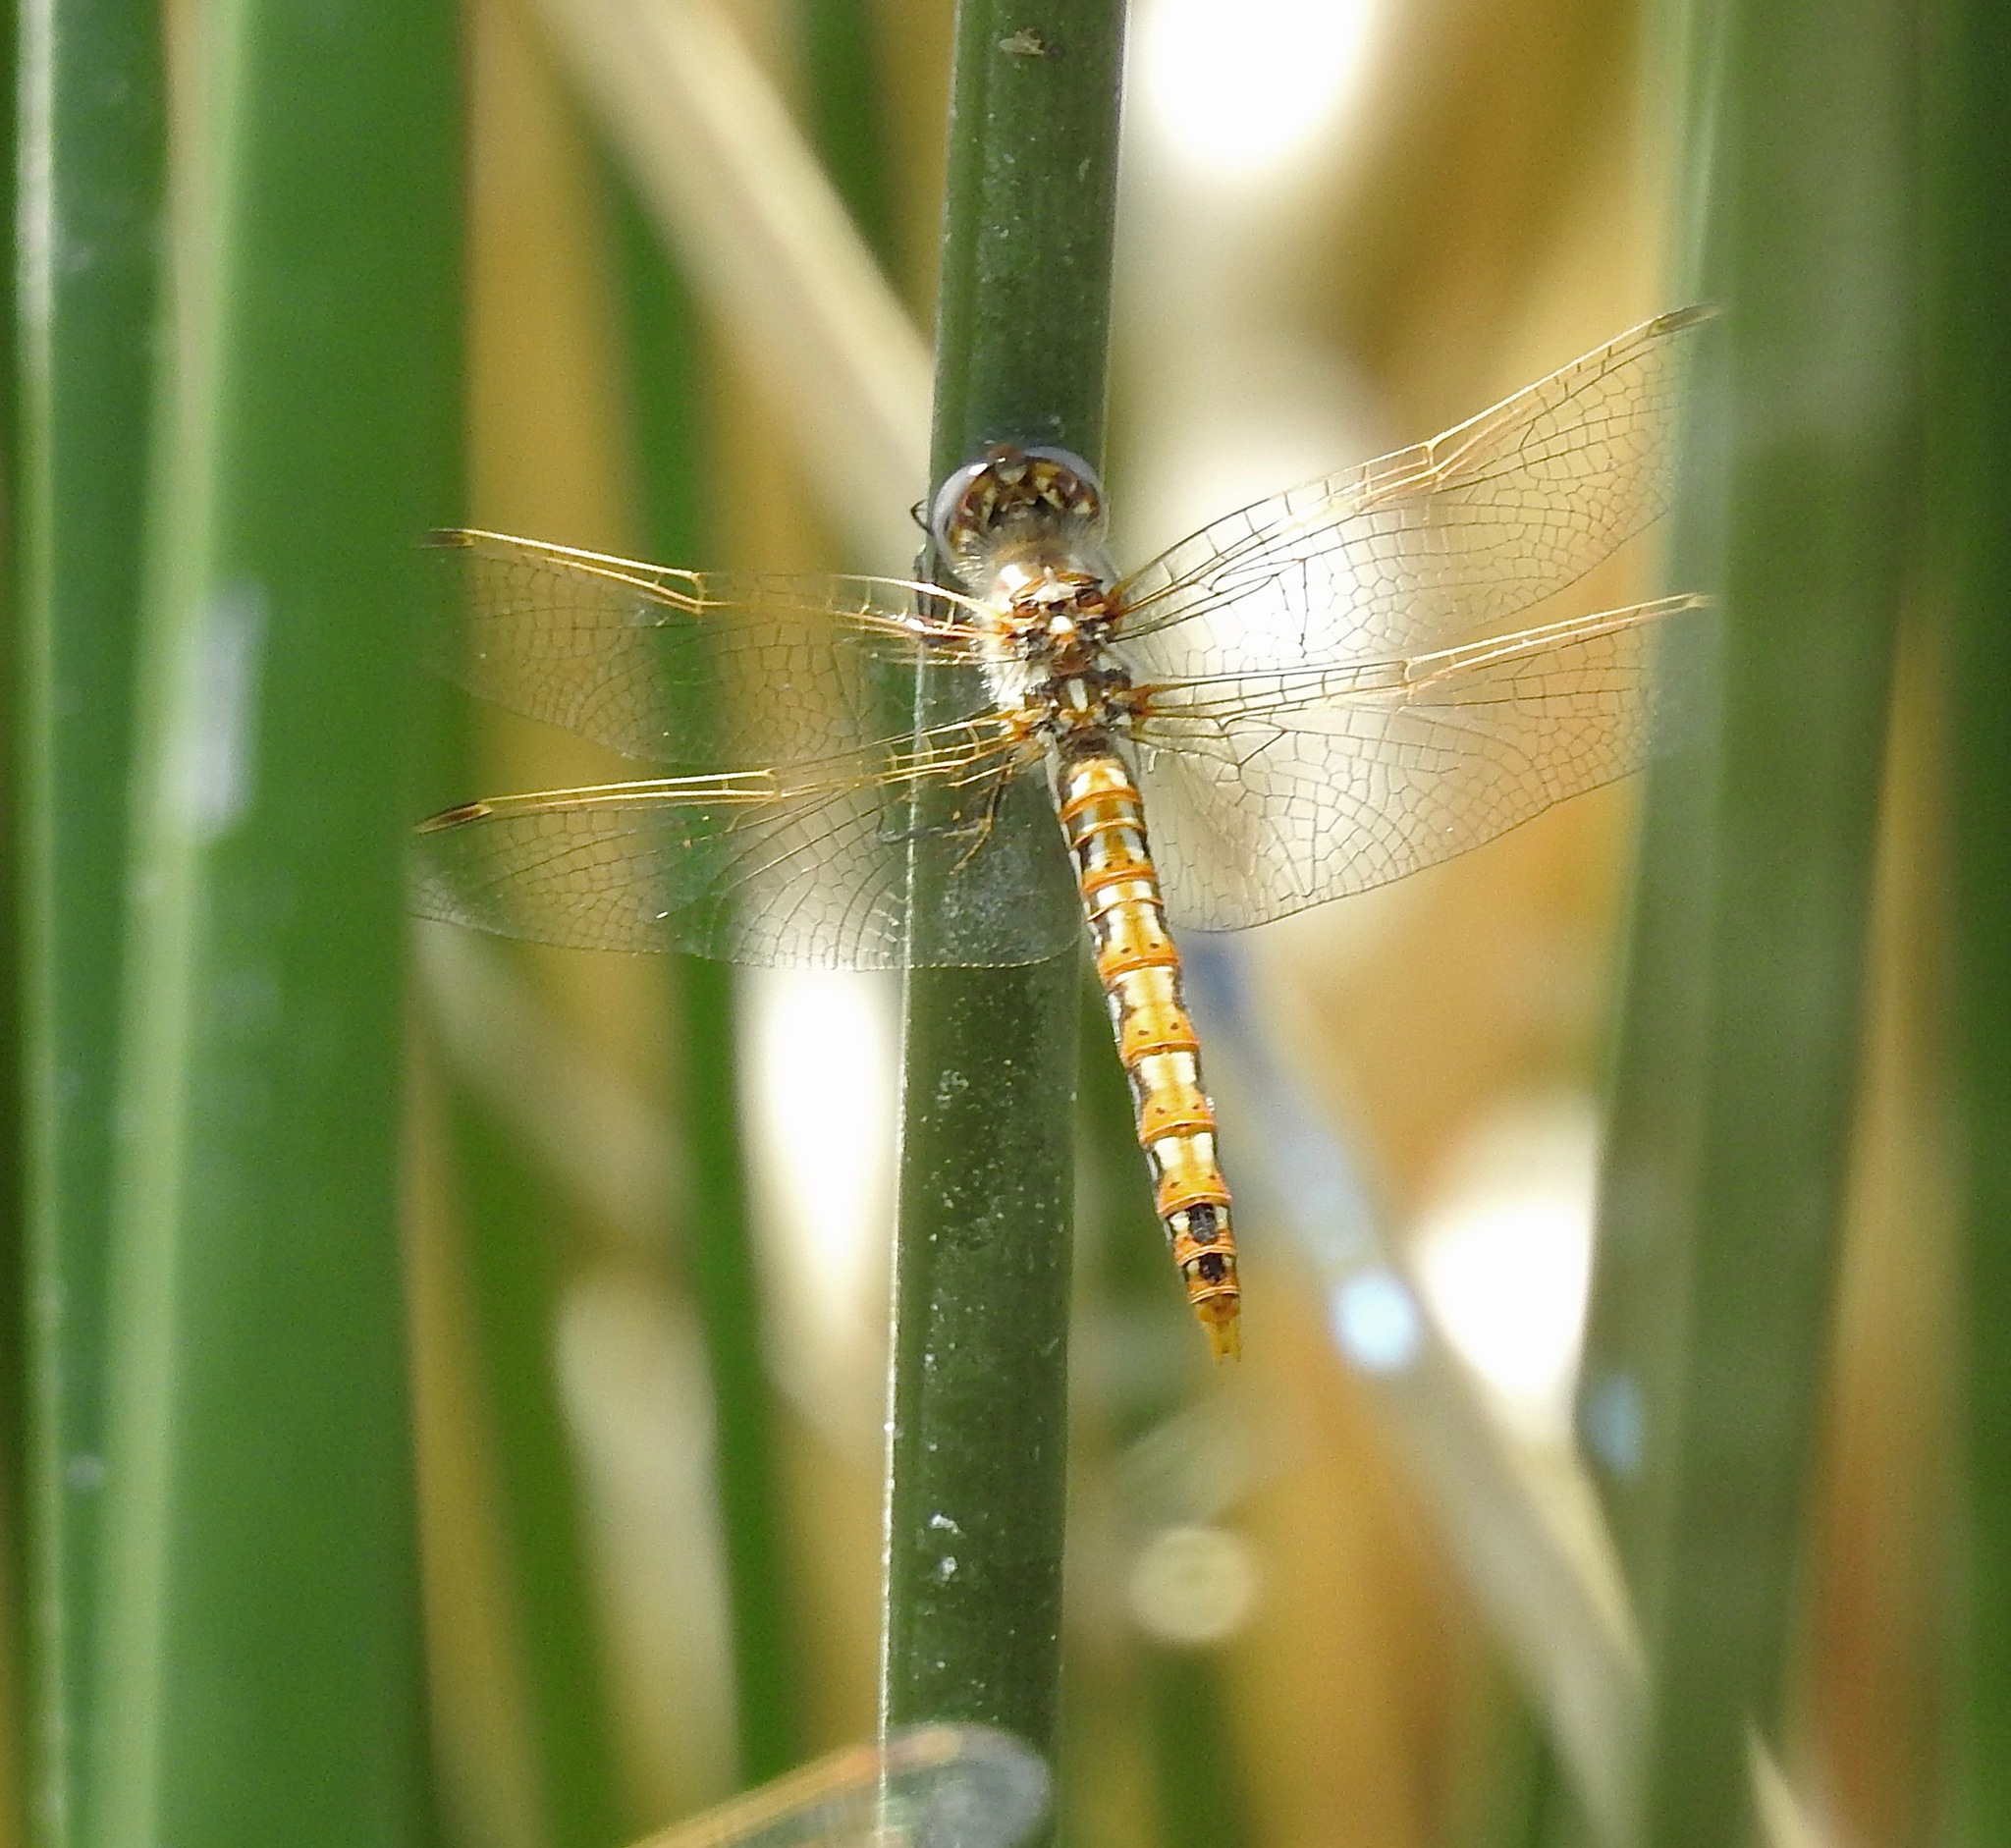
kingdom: Animalia
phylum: Arthropoda
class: Insecta
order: Odonata
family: Libellulidae
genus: Sympetrum
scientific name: Sympetrum corruptum
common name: Variegated meadowhawk
